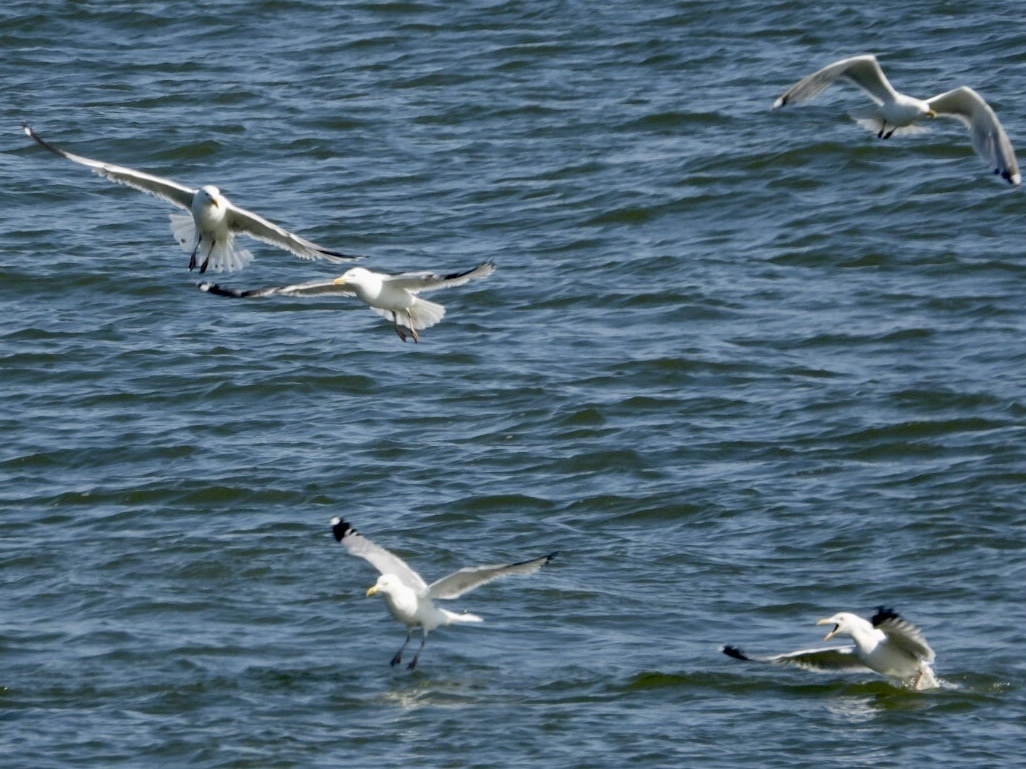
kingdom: Animalia
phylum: Chordata
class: Aves
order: Charadriiformes
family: Laridae
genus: Larus
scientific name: Larus argentatus
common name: Herring gull
